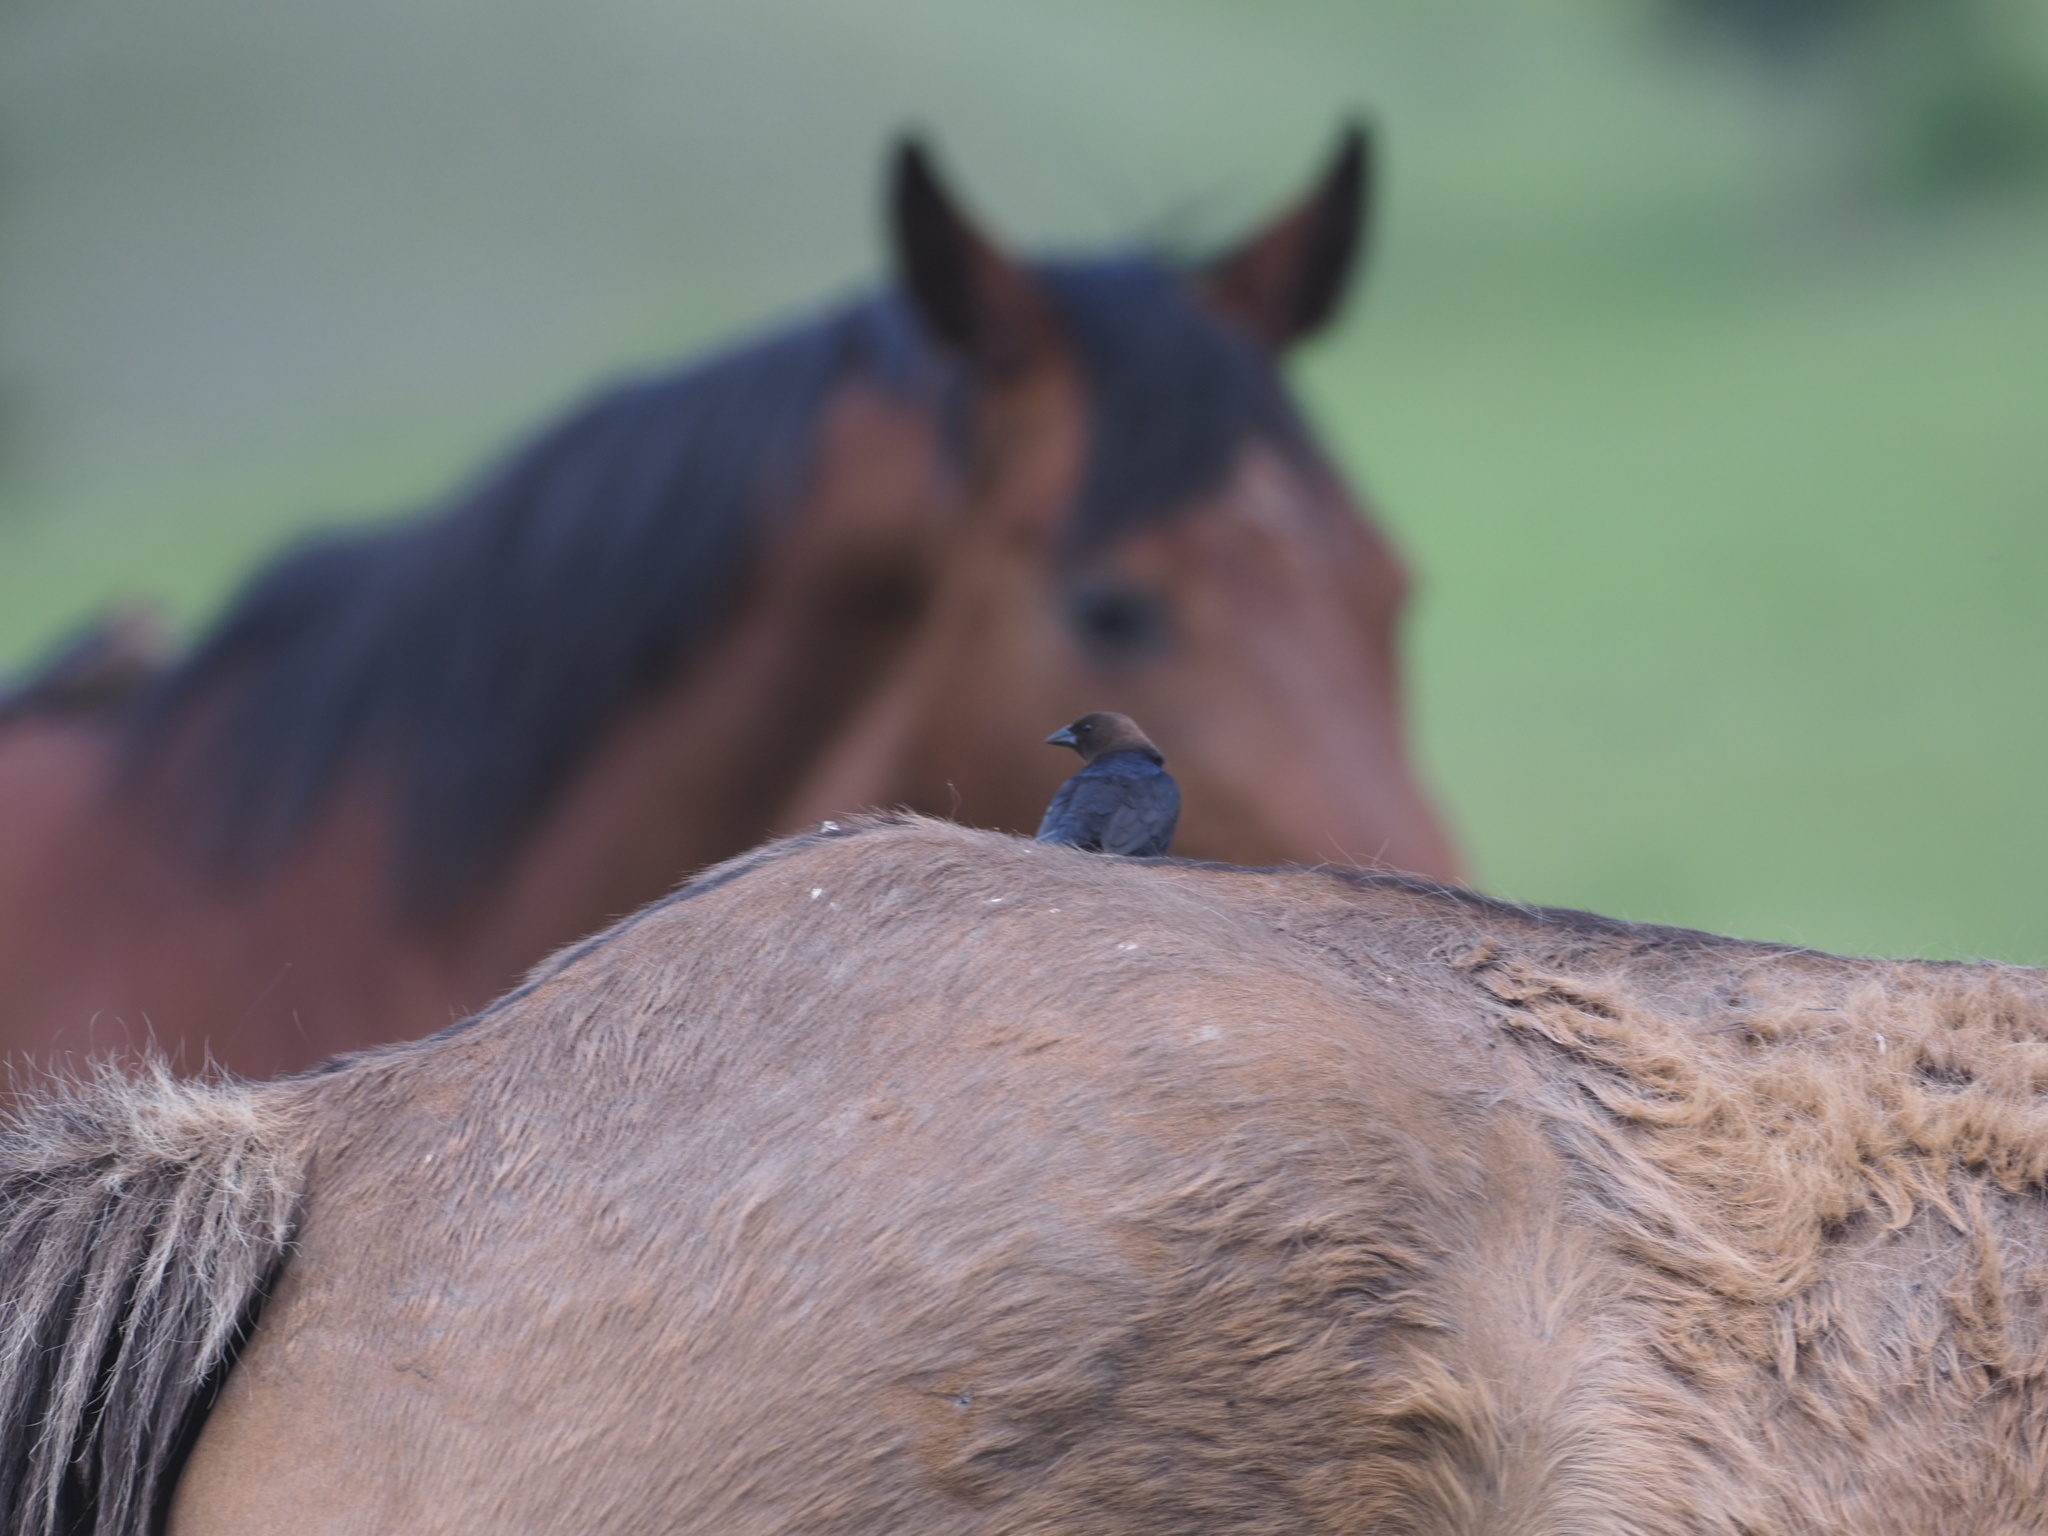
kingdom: Animalia
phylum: Chordata
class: Aves
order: Passeriformes
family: Icteridae
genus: Molothrus
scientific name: Molothrus ater
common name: Brown-headed cowbird
